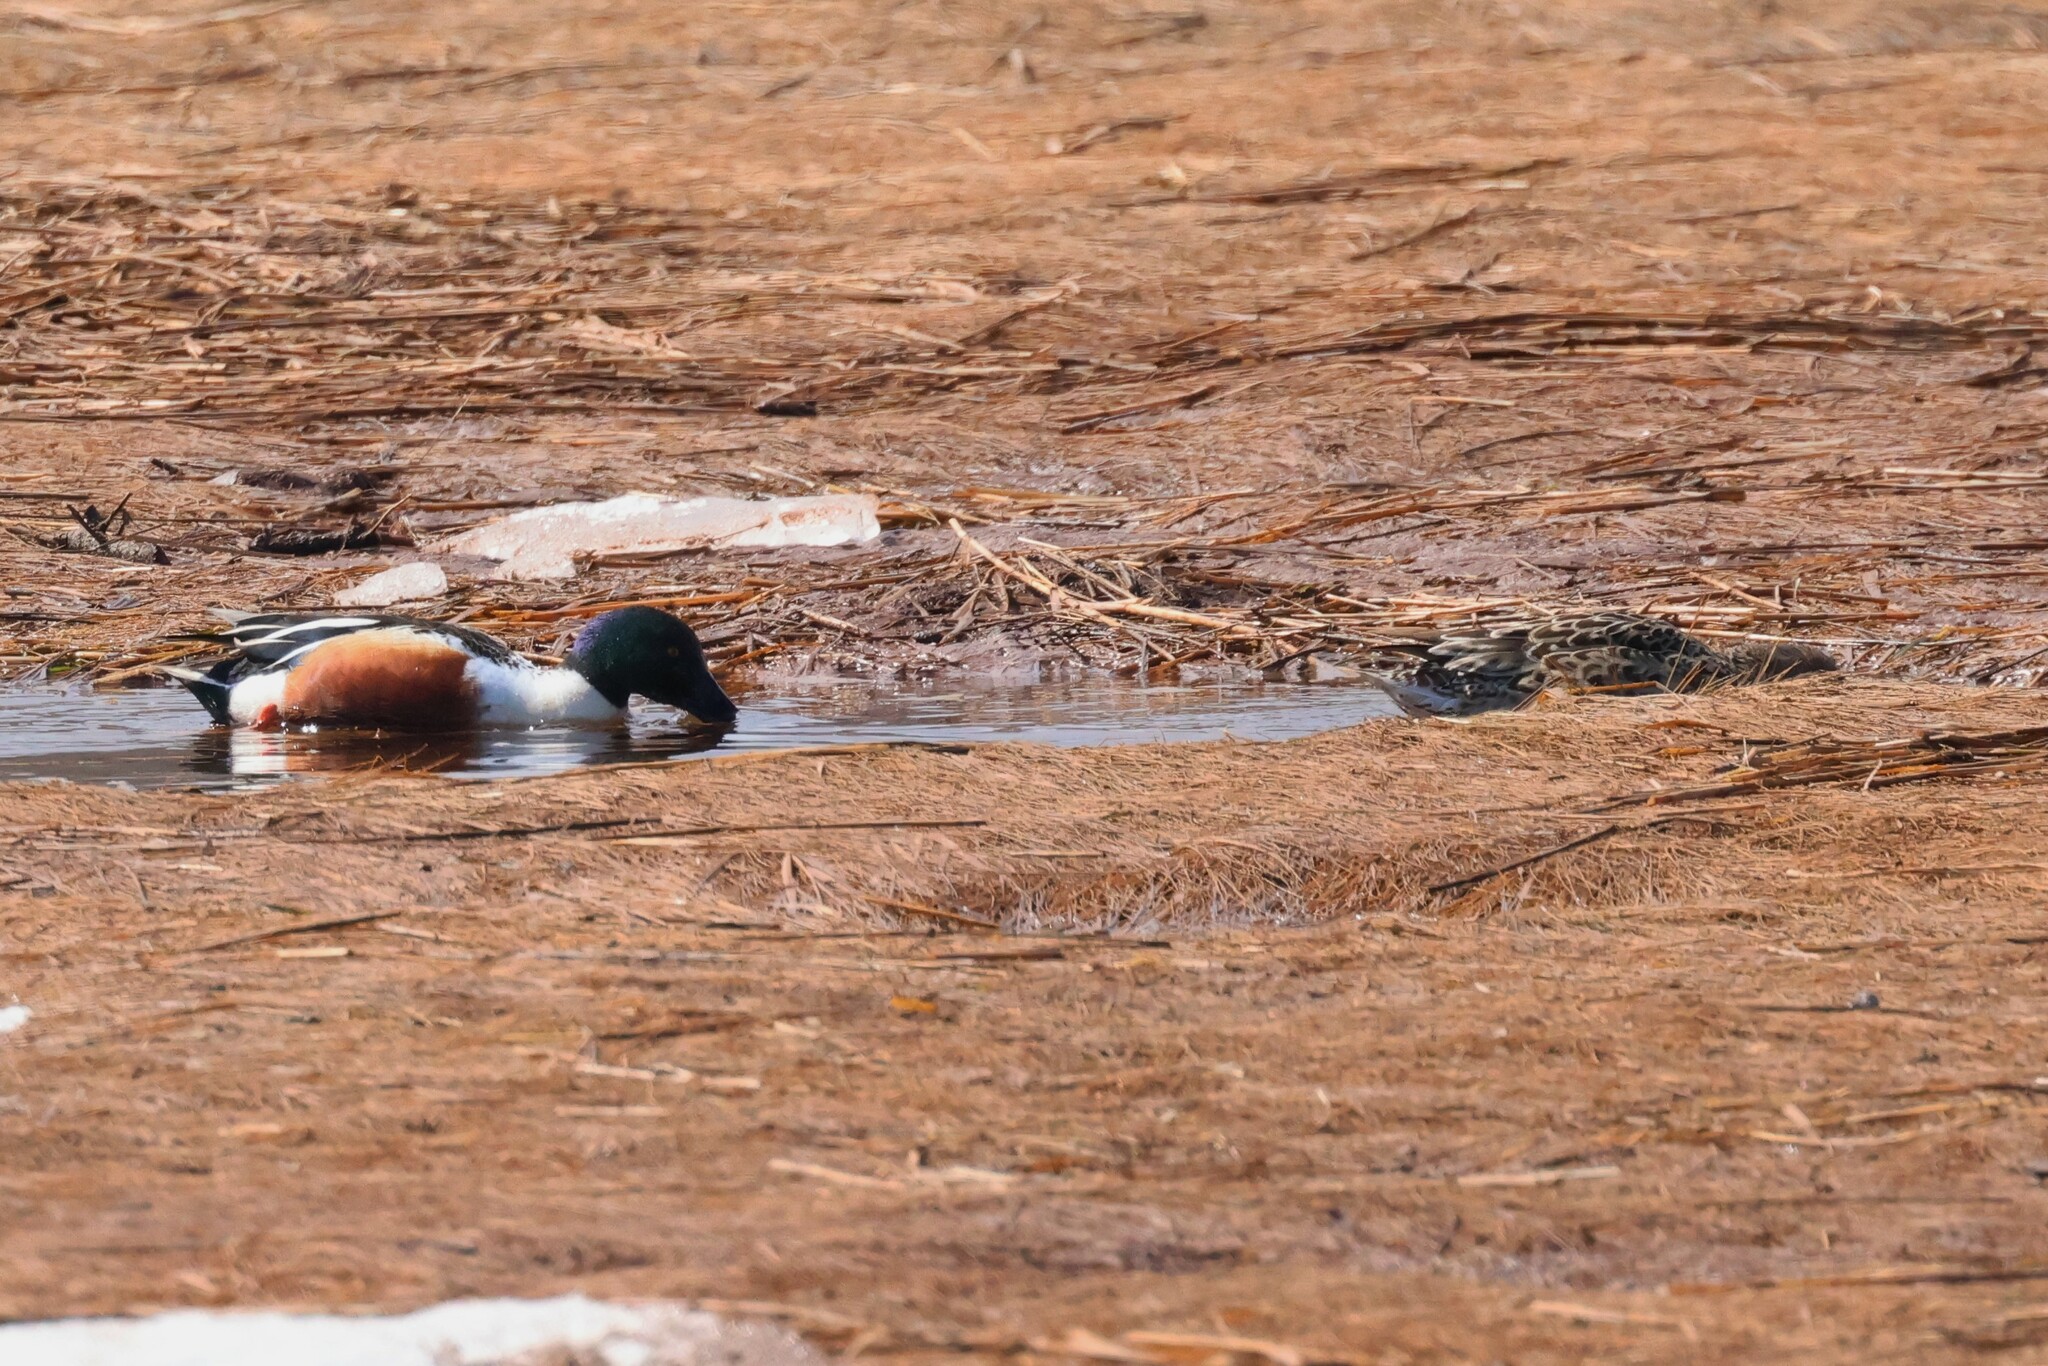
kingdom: Animalia
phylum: Chordata
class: Aves
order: Anseriformes
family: Anatidae
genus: Spatula
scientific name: Spatula clypeata
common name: Northern shoveler
